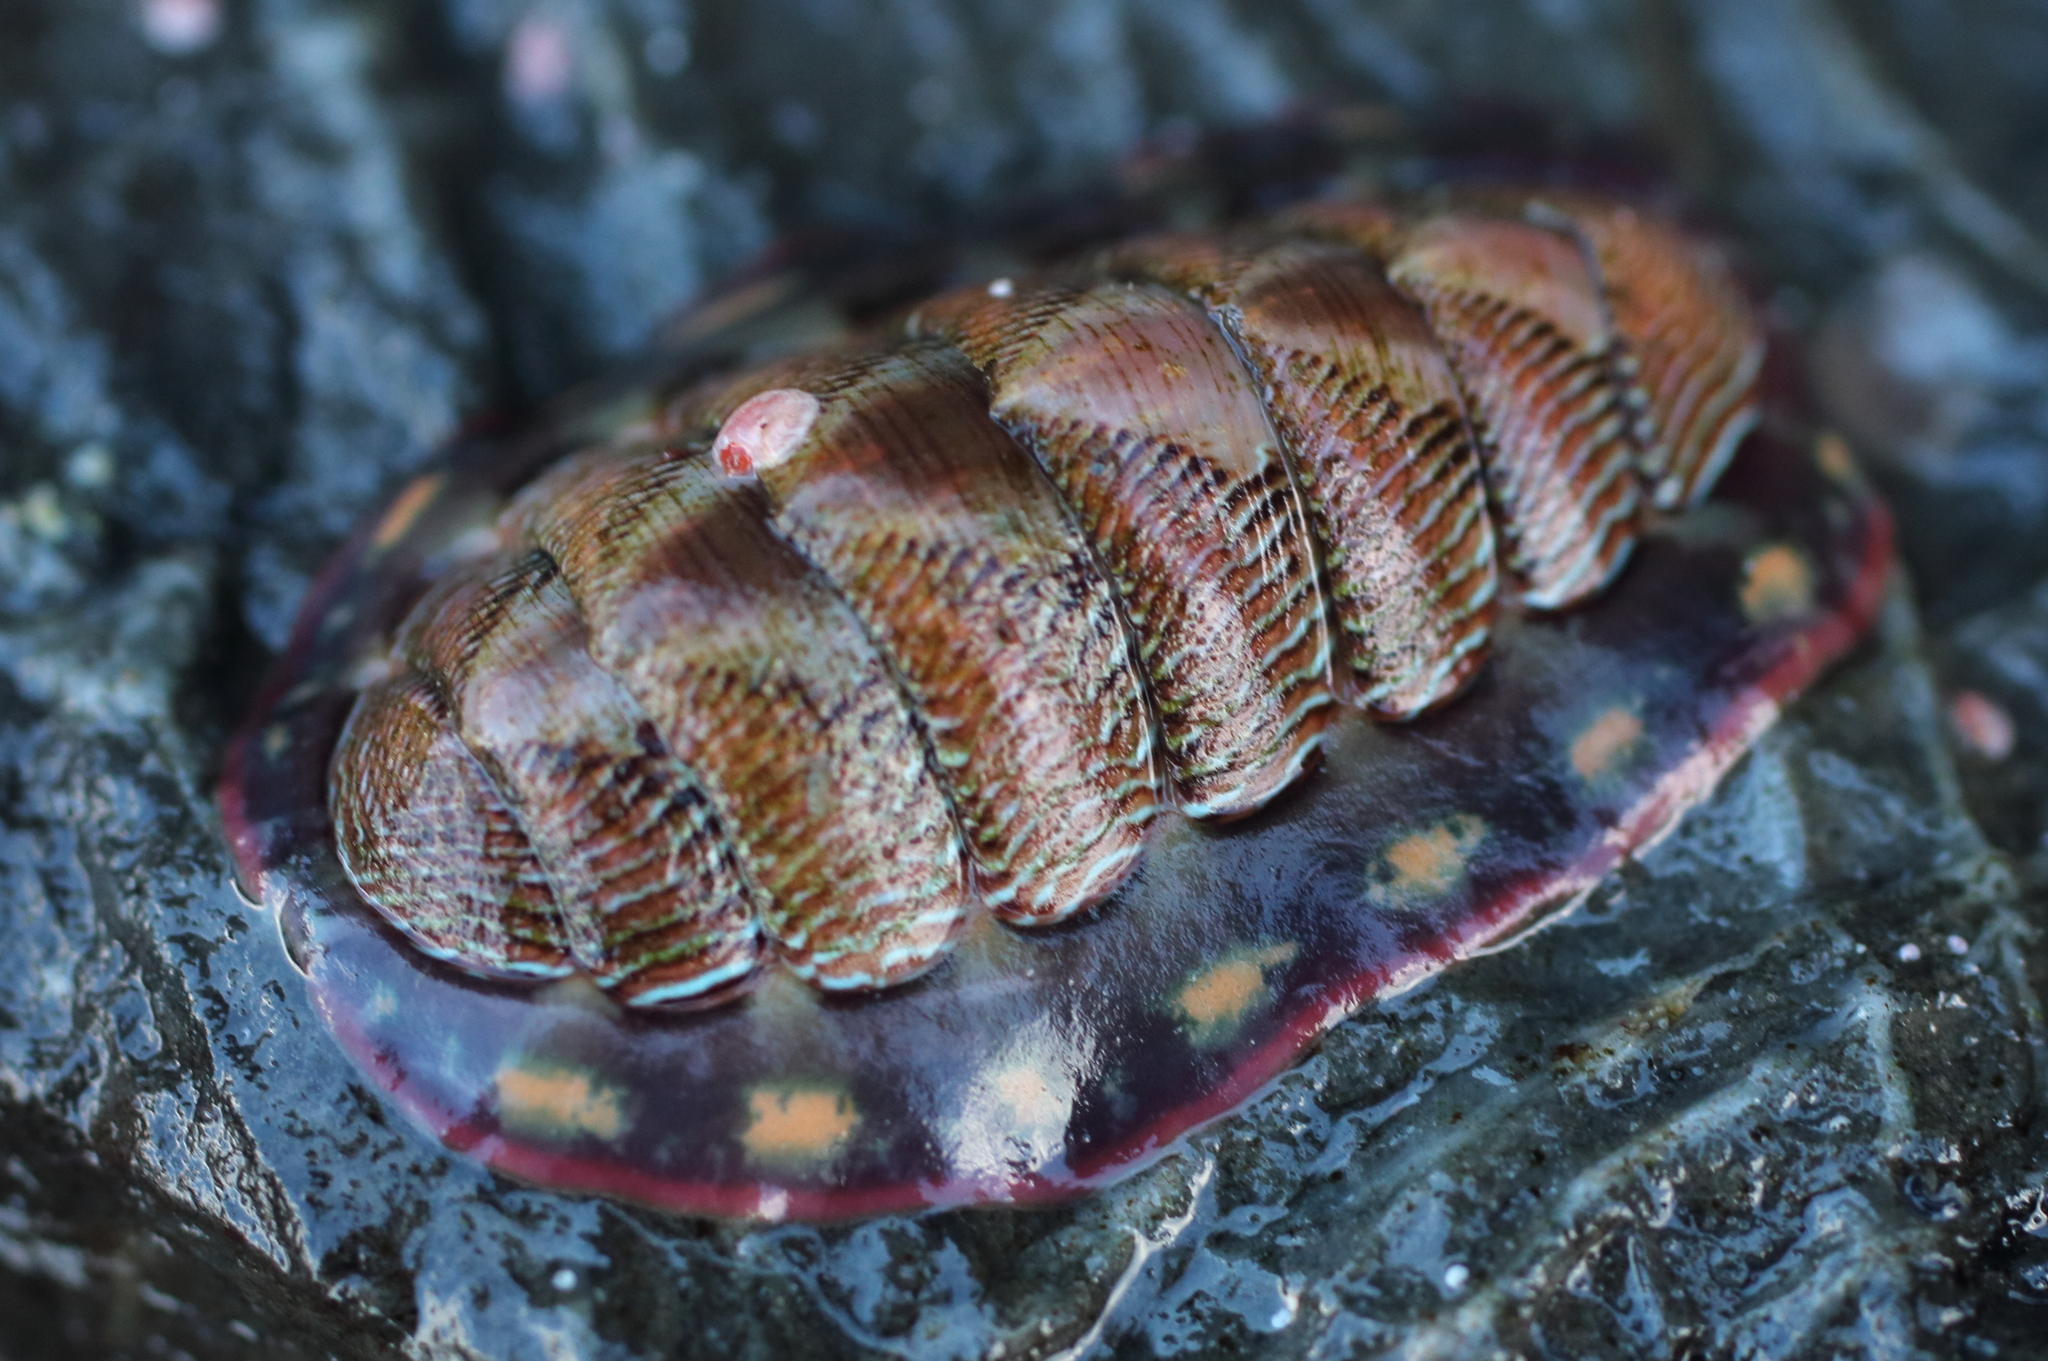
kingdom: Animalia
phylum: Mollusca
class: Polyplacophora
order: Chitonida
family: Tonicellidae
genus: Tonicella
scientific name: Tonicella lineata
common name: Lined chiton
